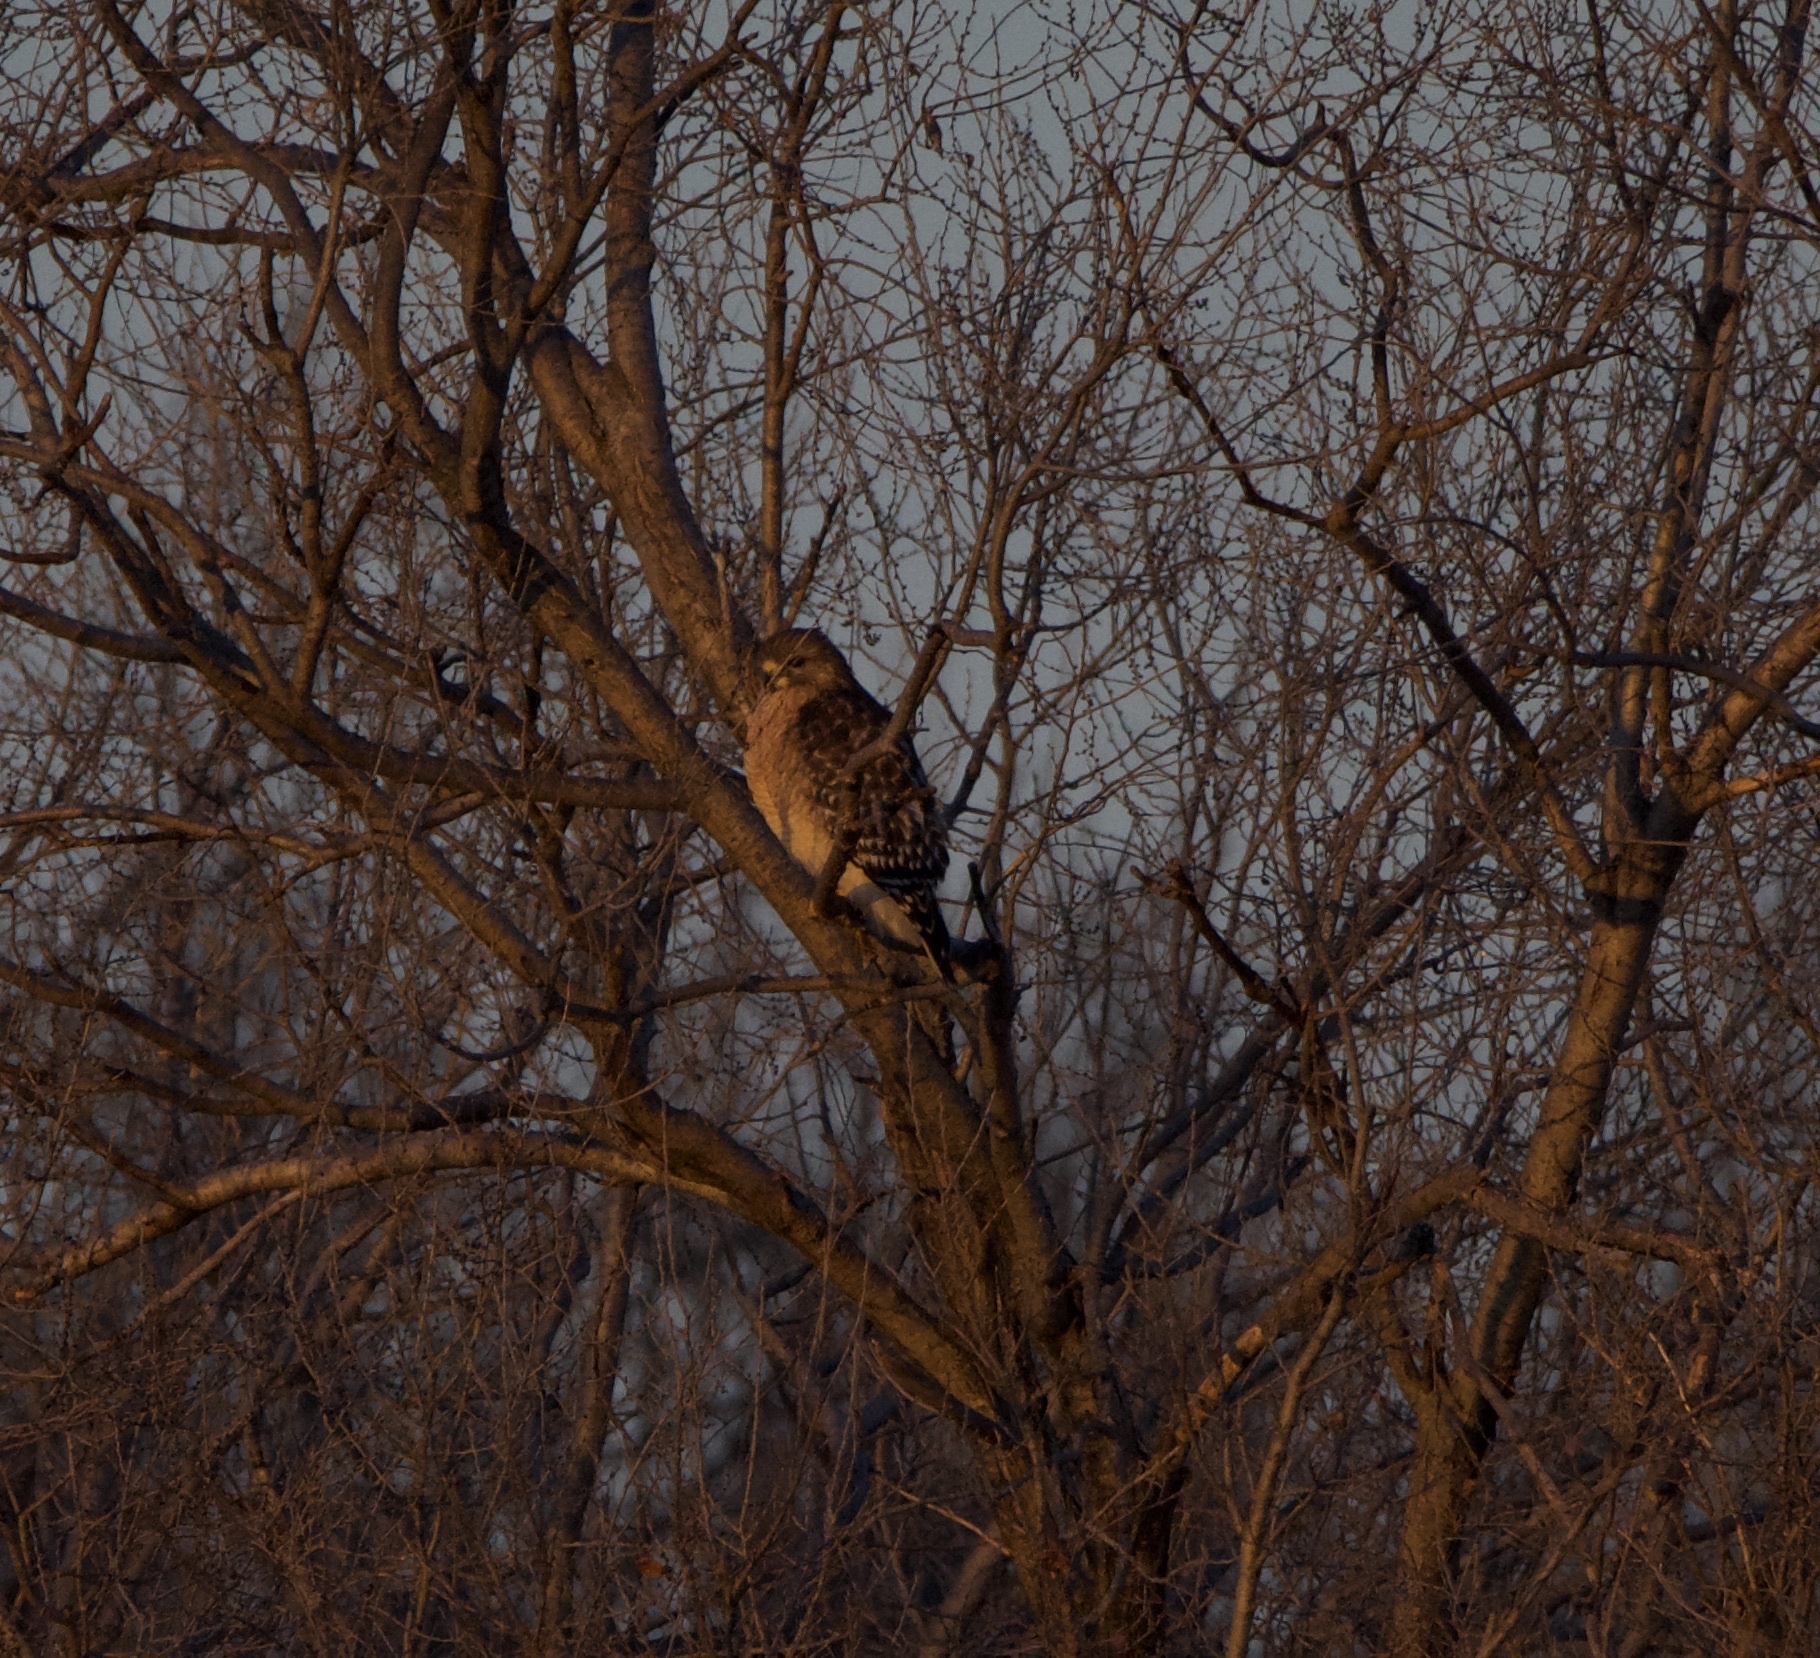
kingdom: Animalia
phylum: Chordata
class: Aves
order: Accipitriformes
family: Accipitridae
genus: Buteo
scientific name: Buteo lineatus
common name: Red-shouldered hawk
